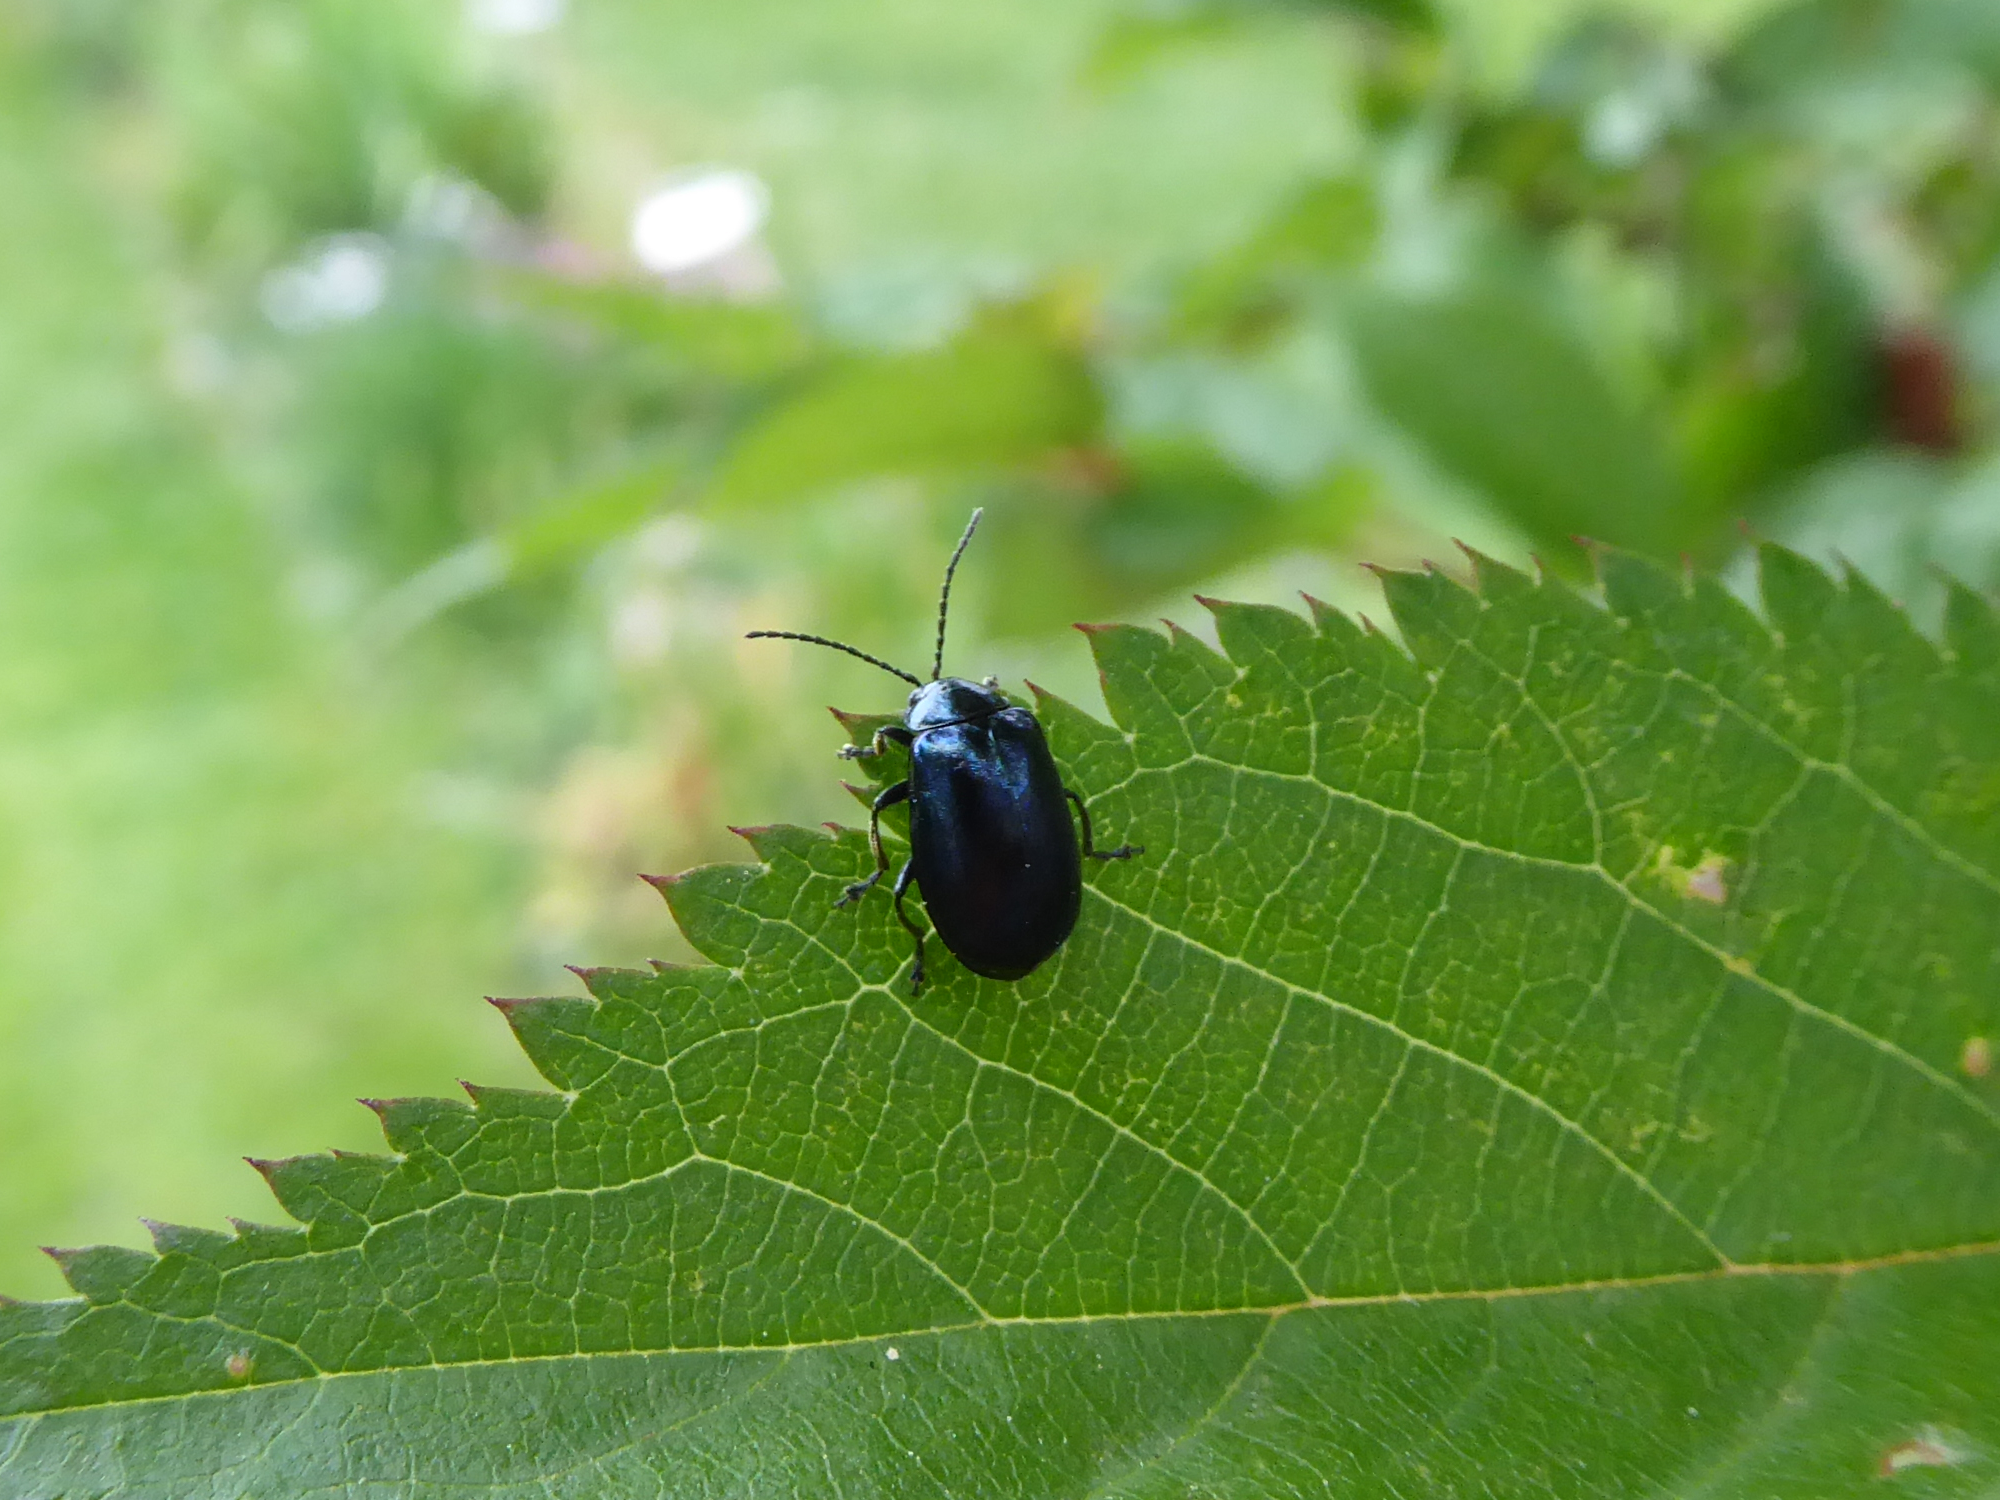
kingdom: Animalia
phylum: Arthropoda
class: Insecta
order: Coleoptera
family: Chrysomelidae
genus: Agelastica
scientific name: Agelastica alni
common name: Alder leaf beetle
